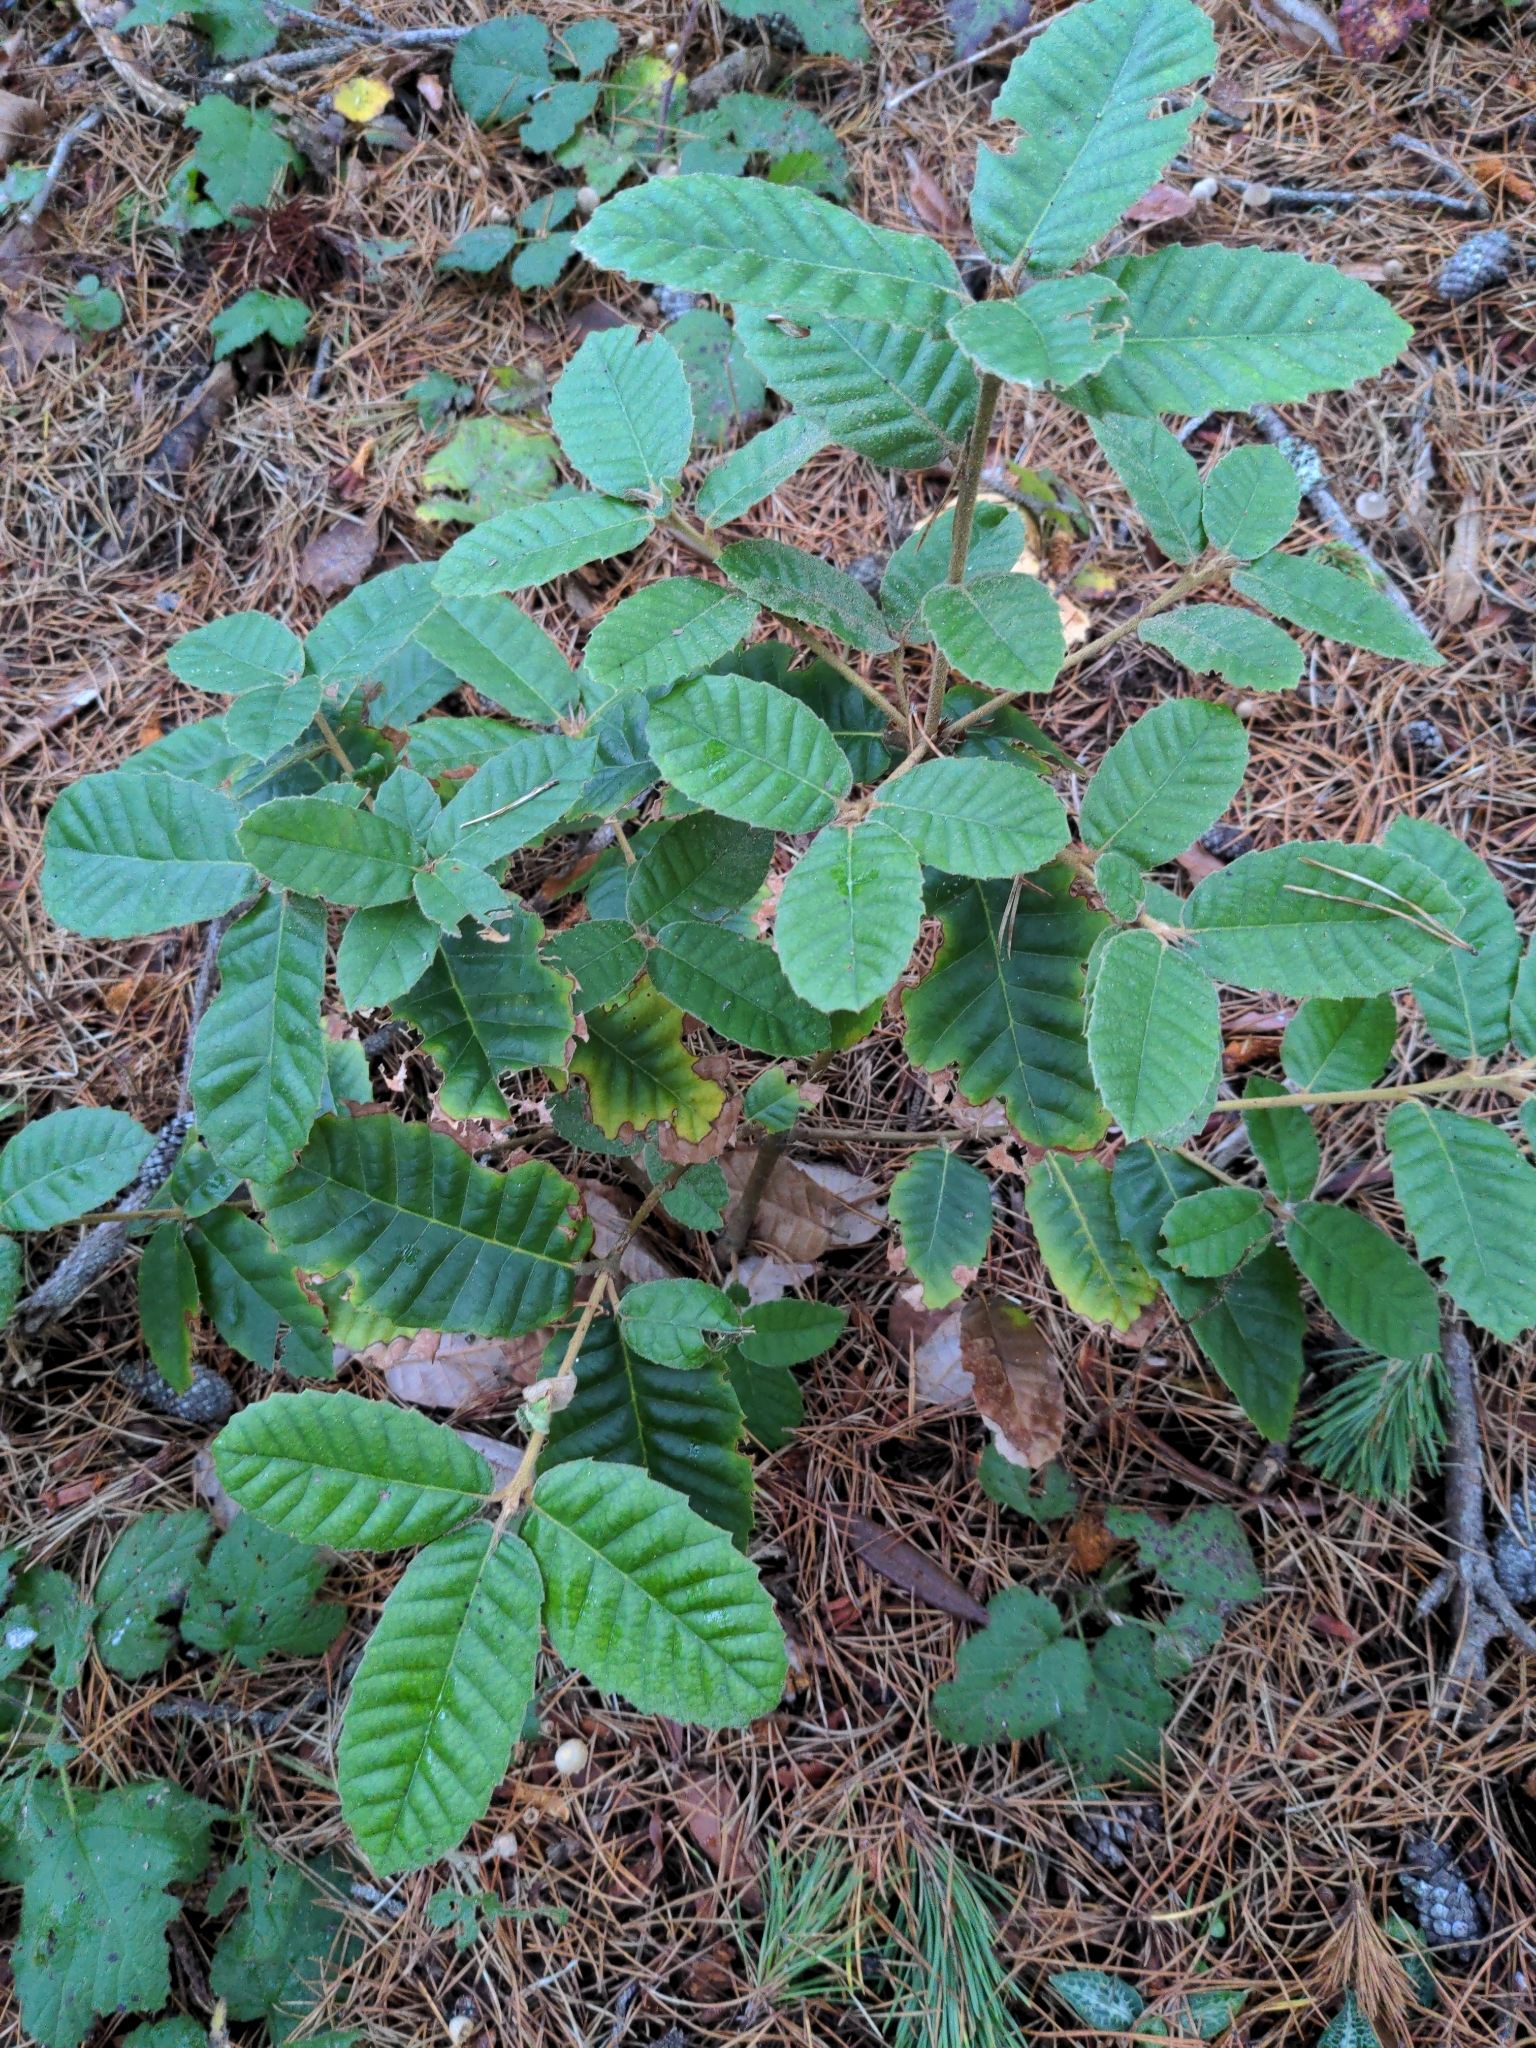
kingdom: Plantae
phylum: Tracheophyta
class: Magnoliopsida
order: Fagales
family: Fagaceae
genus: Notholithocarpus
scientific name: Notholithocarpus densiflorus
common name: Tan bark oak
